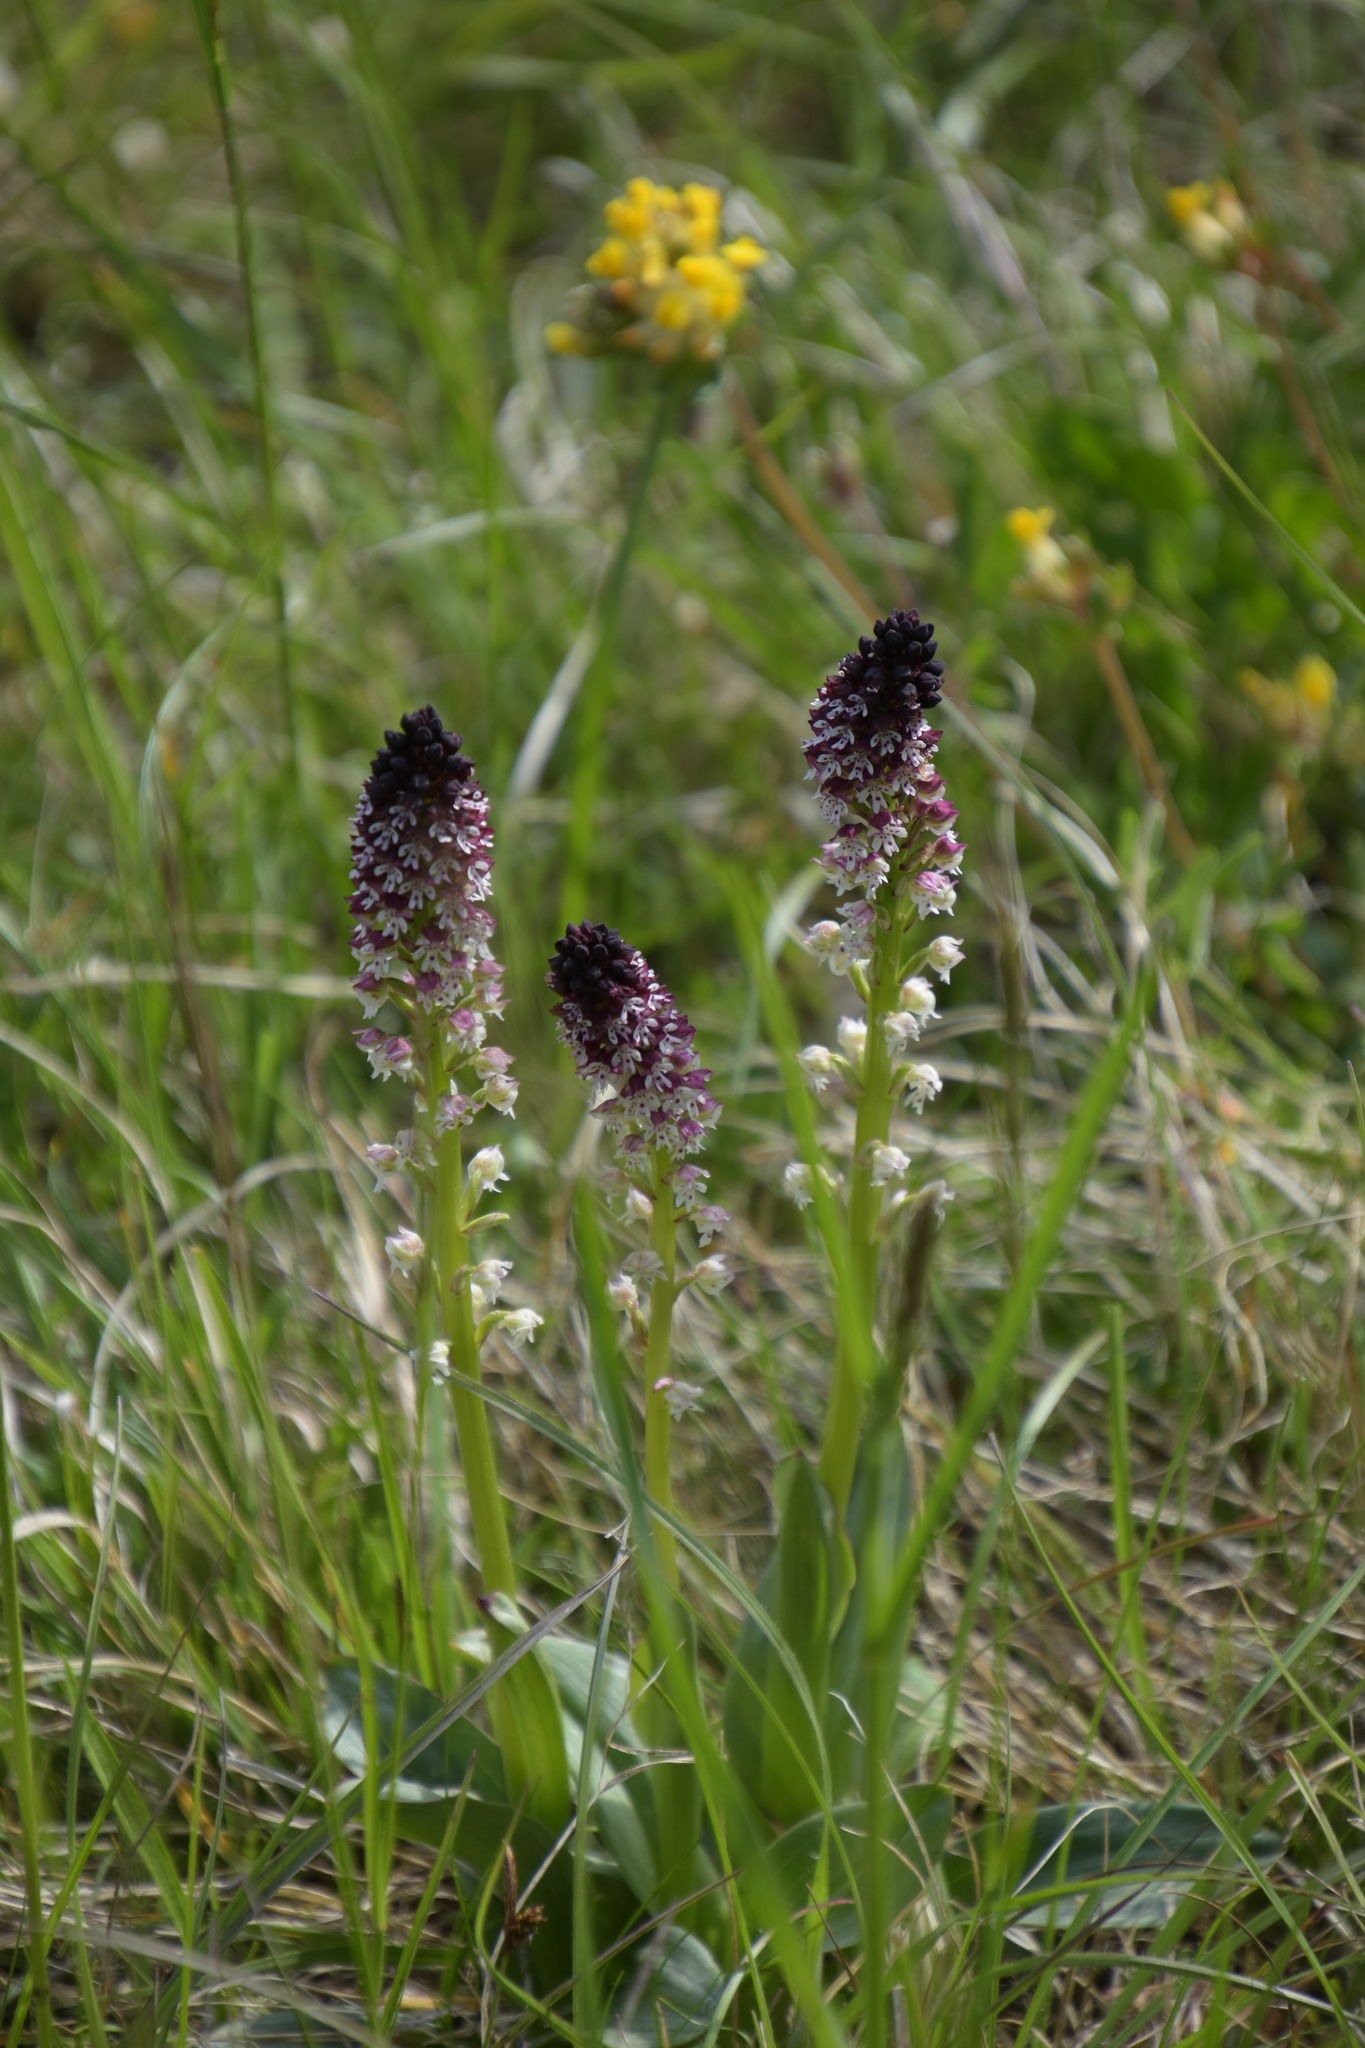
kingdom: Plantae
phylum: Tracheophyta
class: Liliopsida
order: Asparagales
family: Orchidaceae
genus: Neotinea
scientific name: Neotinea ustulata
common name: Burnt orchid
